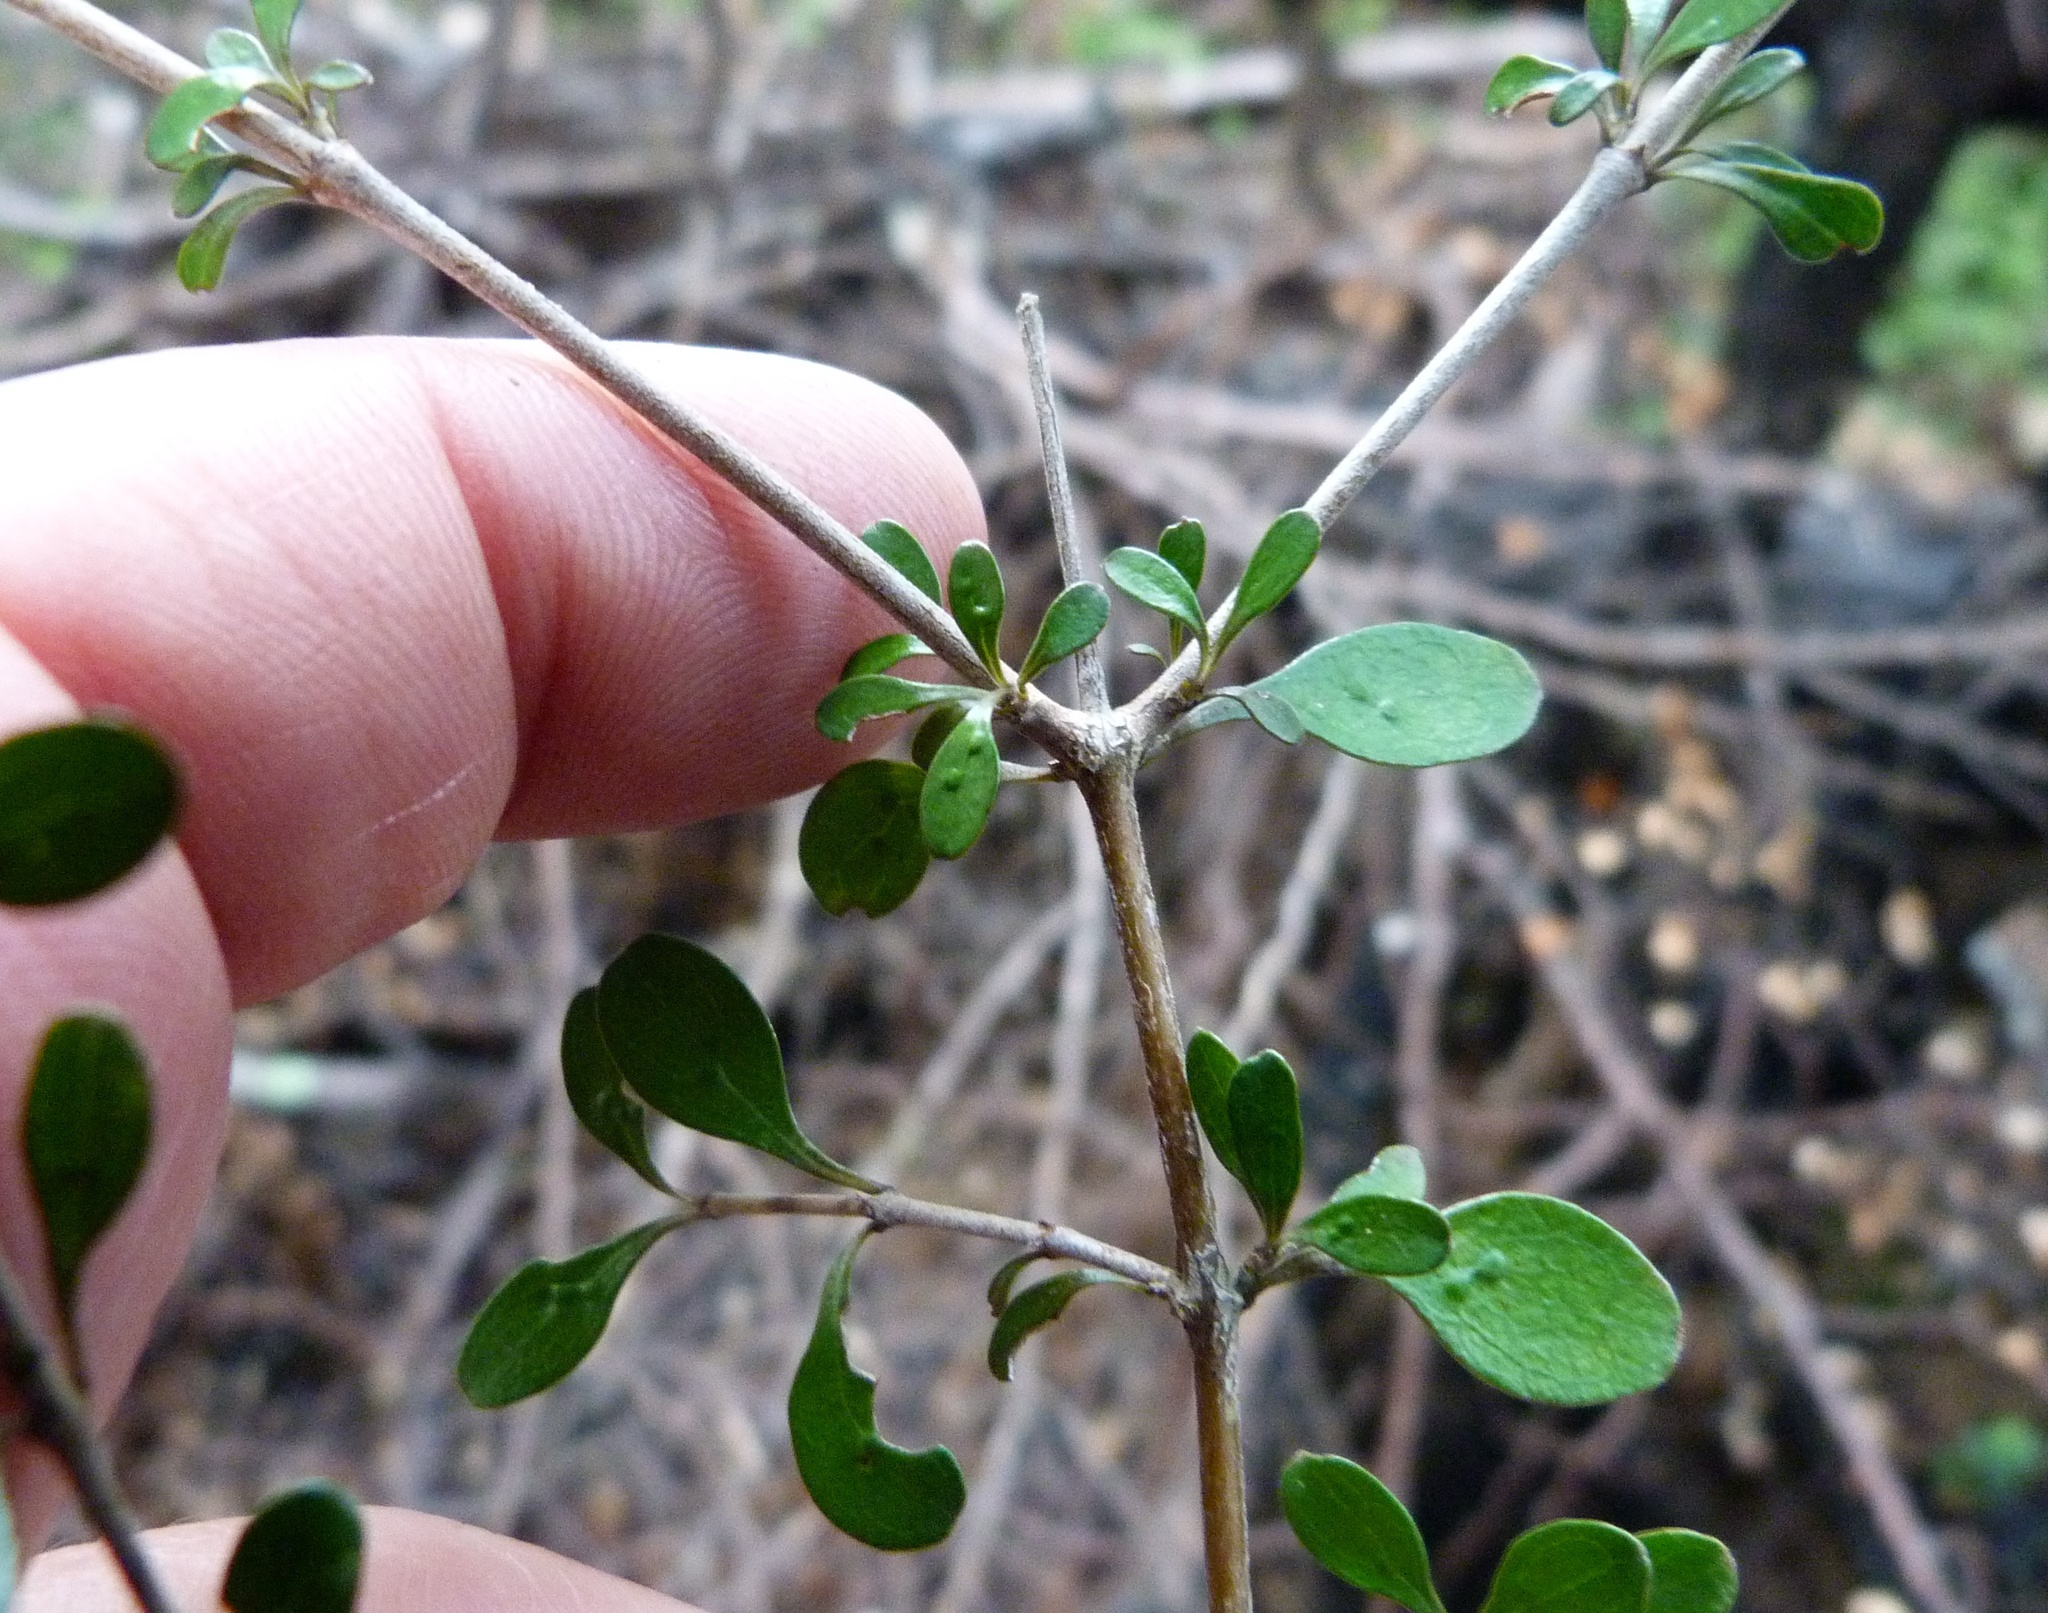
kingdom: Plantae
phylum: Tracheophyta
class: Magnoliopsida
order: Gentianales
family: Rubiaceae
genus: Coprosma
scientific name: Coprosma rigida
